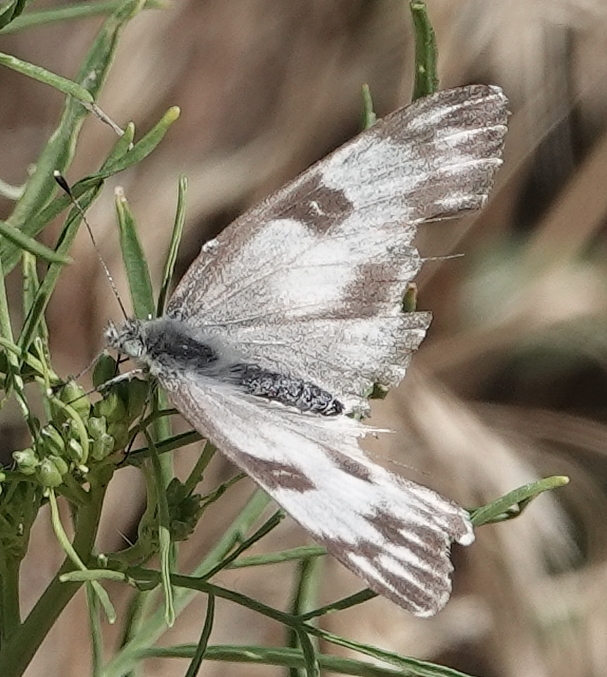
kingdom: Animalia
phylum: Arthropoda
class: Insecta
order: Lepidoptera
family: Pieridae
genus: Pontia
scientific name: Pontia protodice
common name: Checkered white
